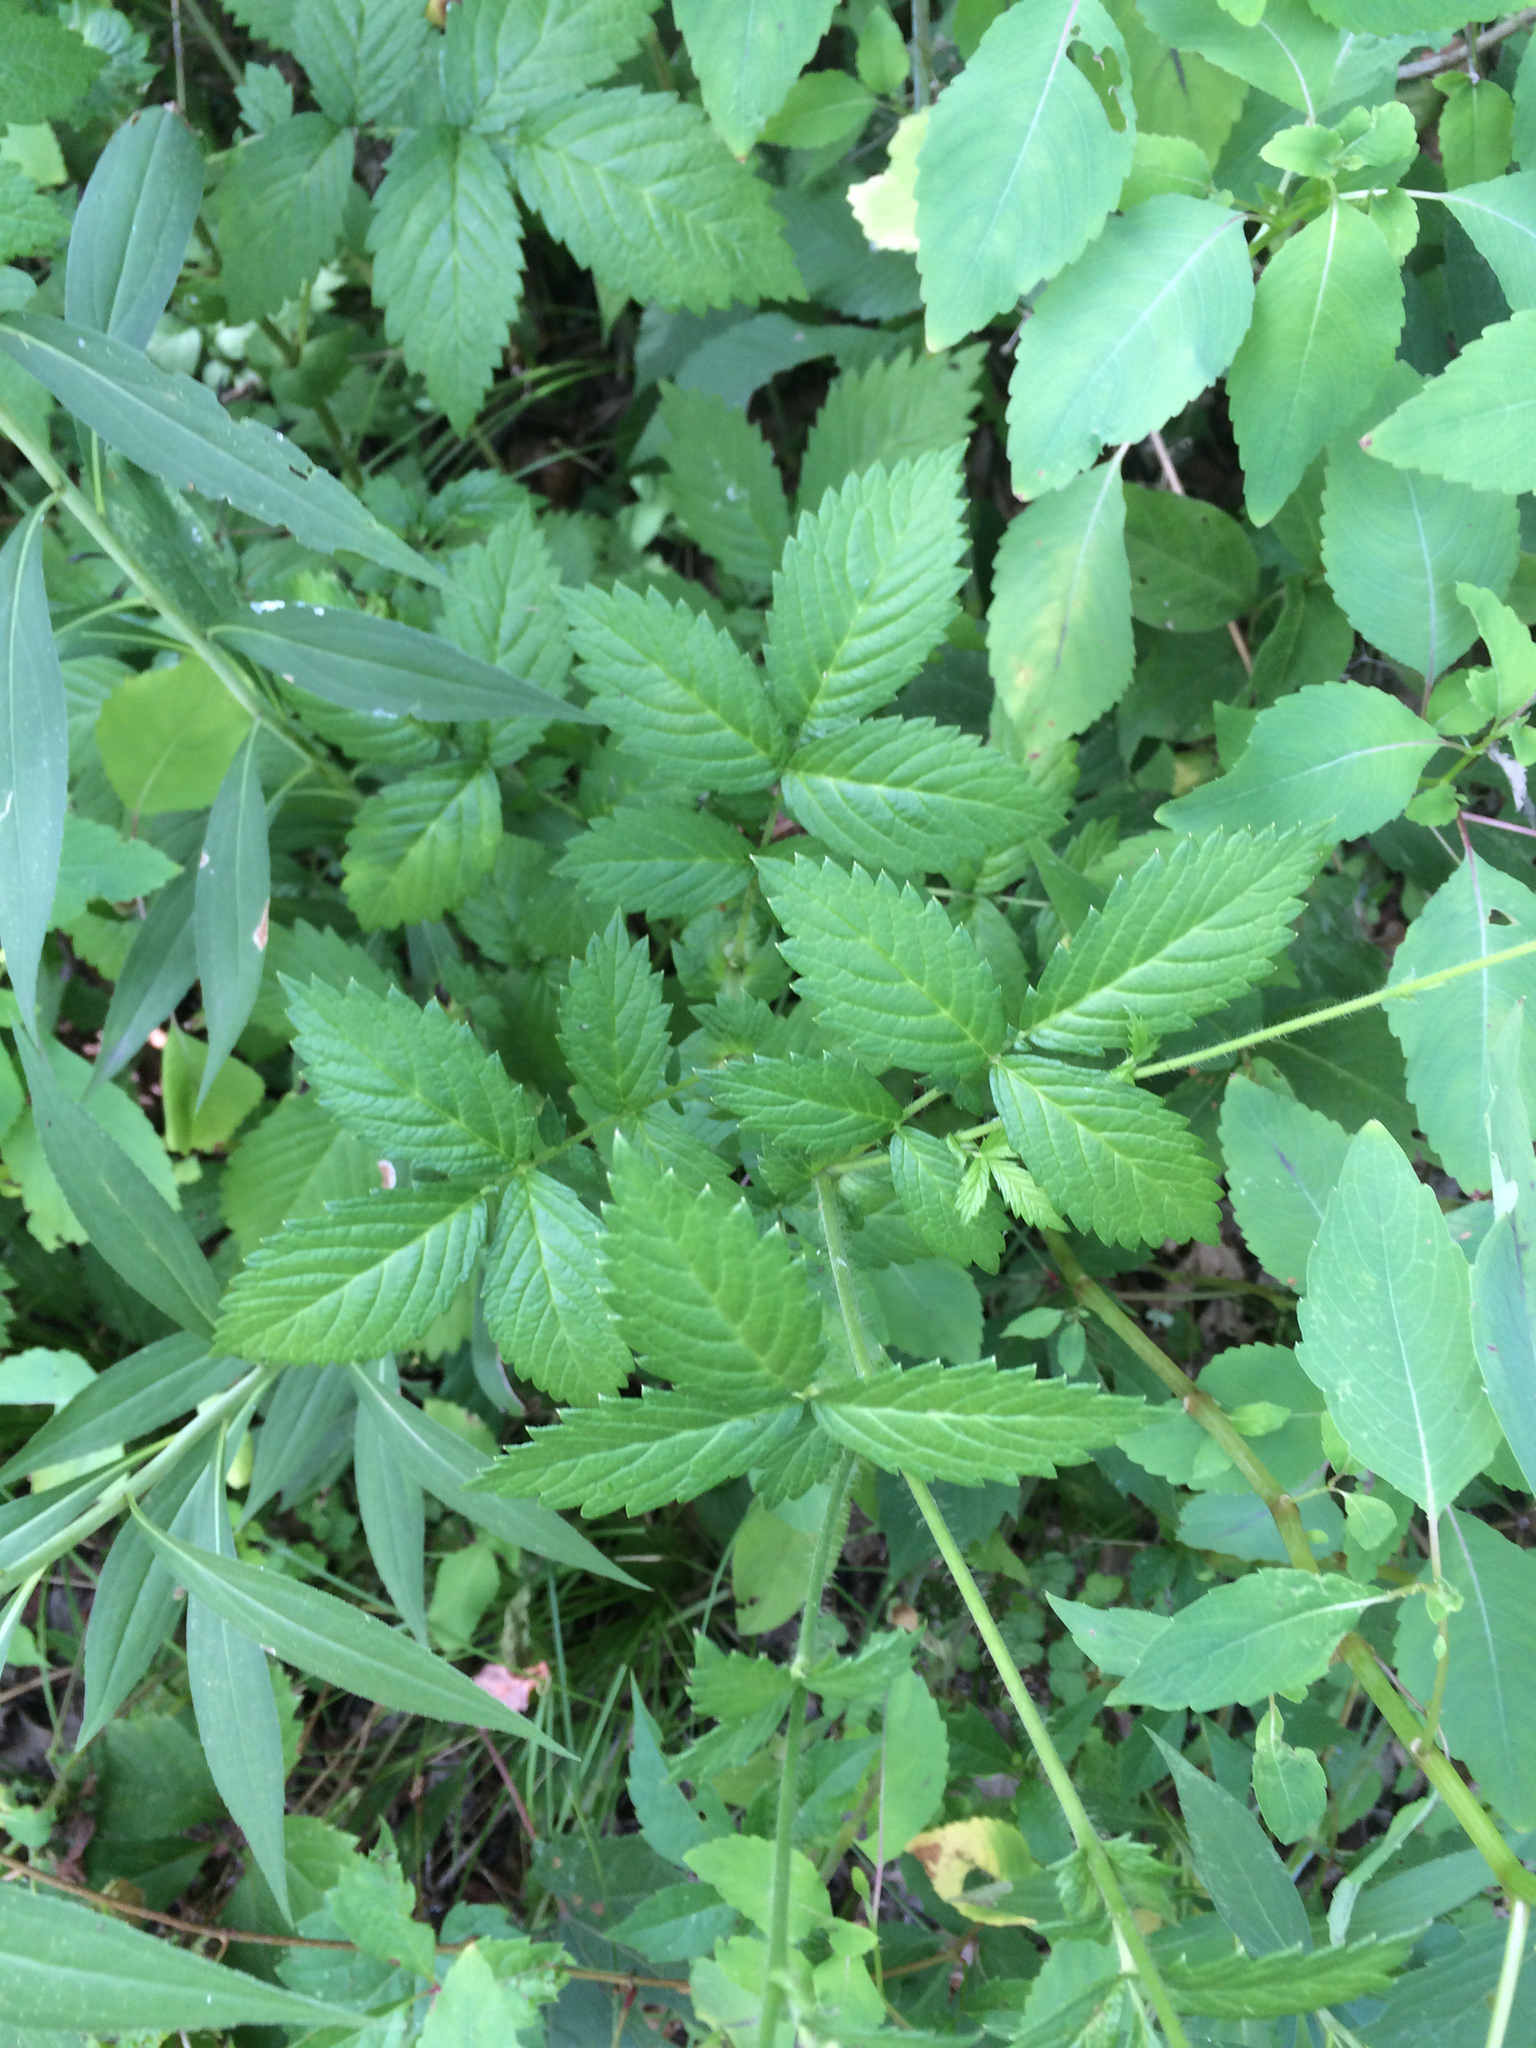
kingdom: Plantae
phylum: Tracheophyta
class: Magnoliopsida
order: Rosales
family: Rosaceae
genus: Agrimonia
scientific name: Agrimonia gryposepala
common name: Common agrimony
